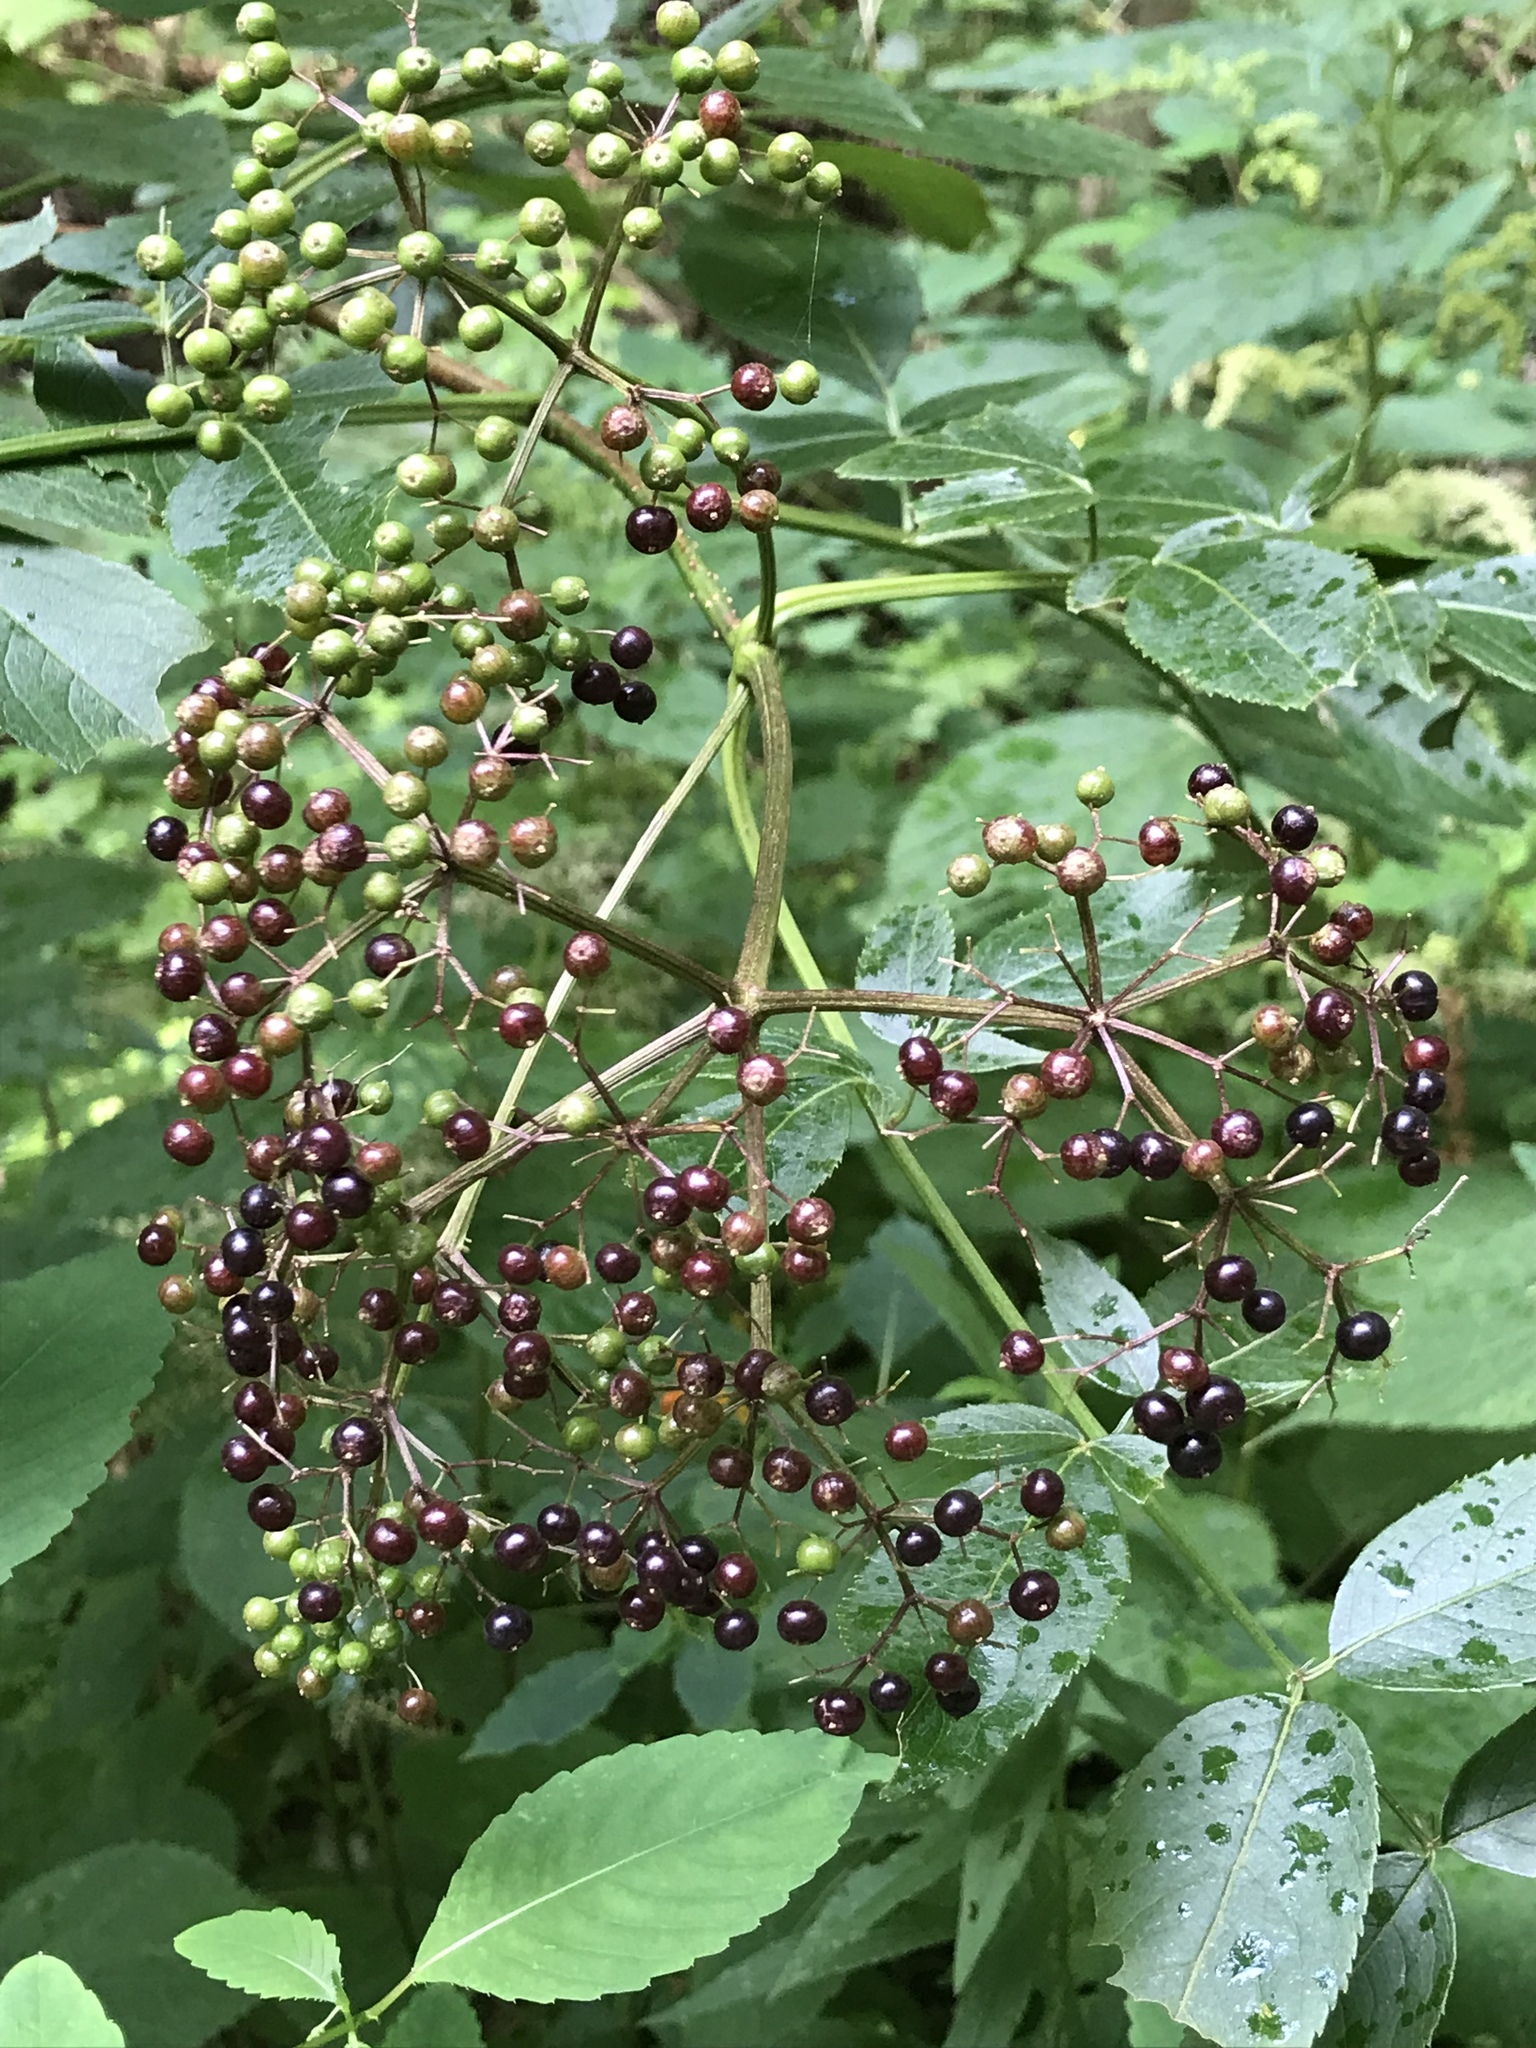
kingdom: Plantae
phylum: Tracheophyta
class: Magnoliopsida
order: Dipsacales
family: Viburnaceae
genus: Sambucus
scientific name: Sambucus canadensis
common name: American elder
